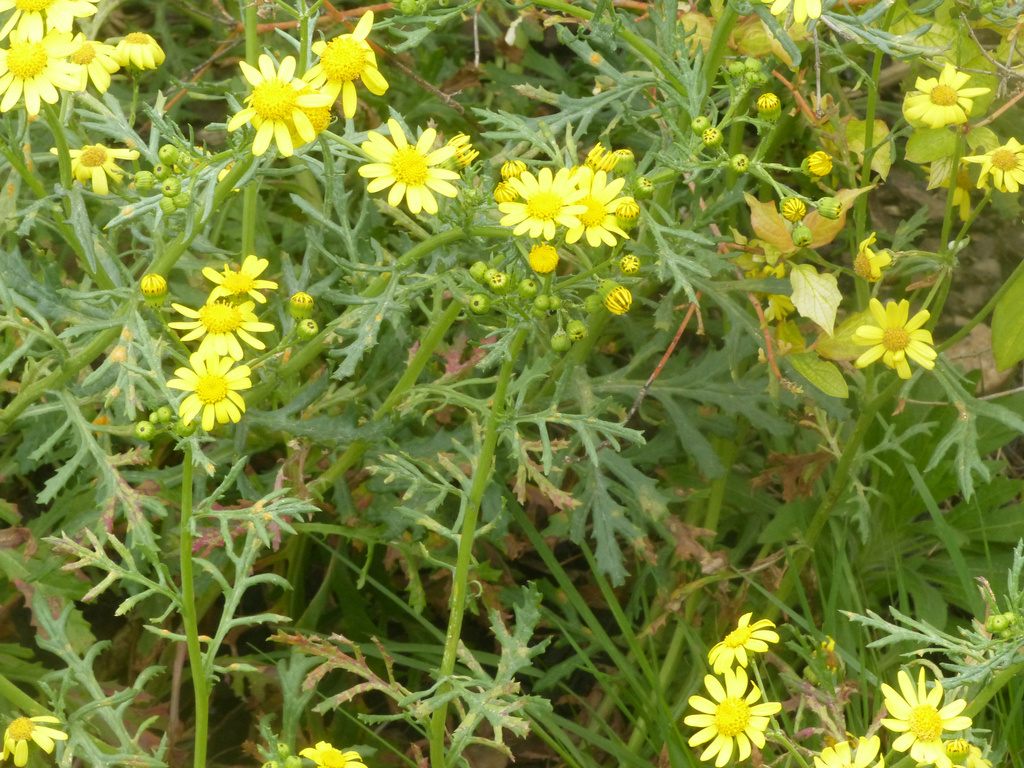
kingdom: Plantae
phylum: Tracheophyta
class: Magnoliopsida
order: Asterales
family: Asteraceae
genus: Senecio
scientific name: Senecio squalidus
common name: Oxford ragwort
